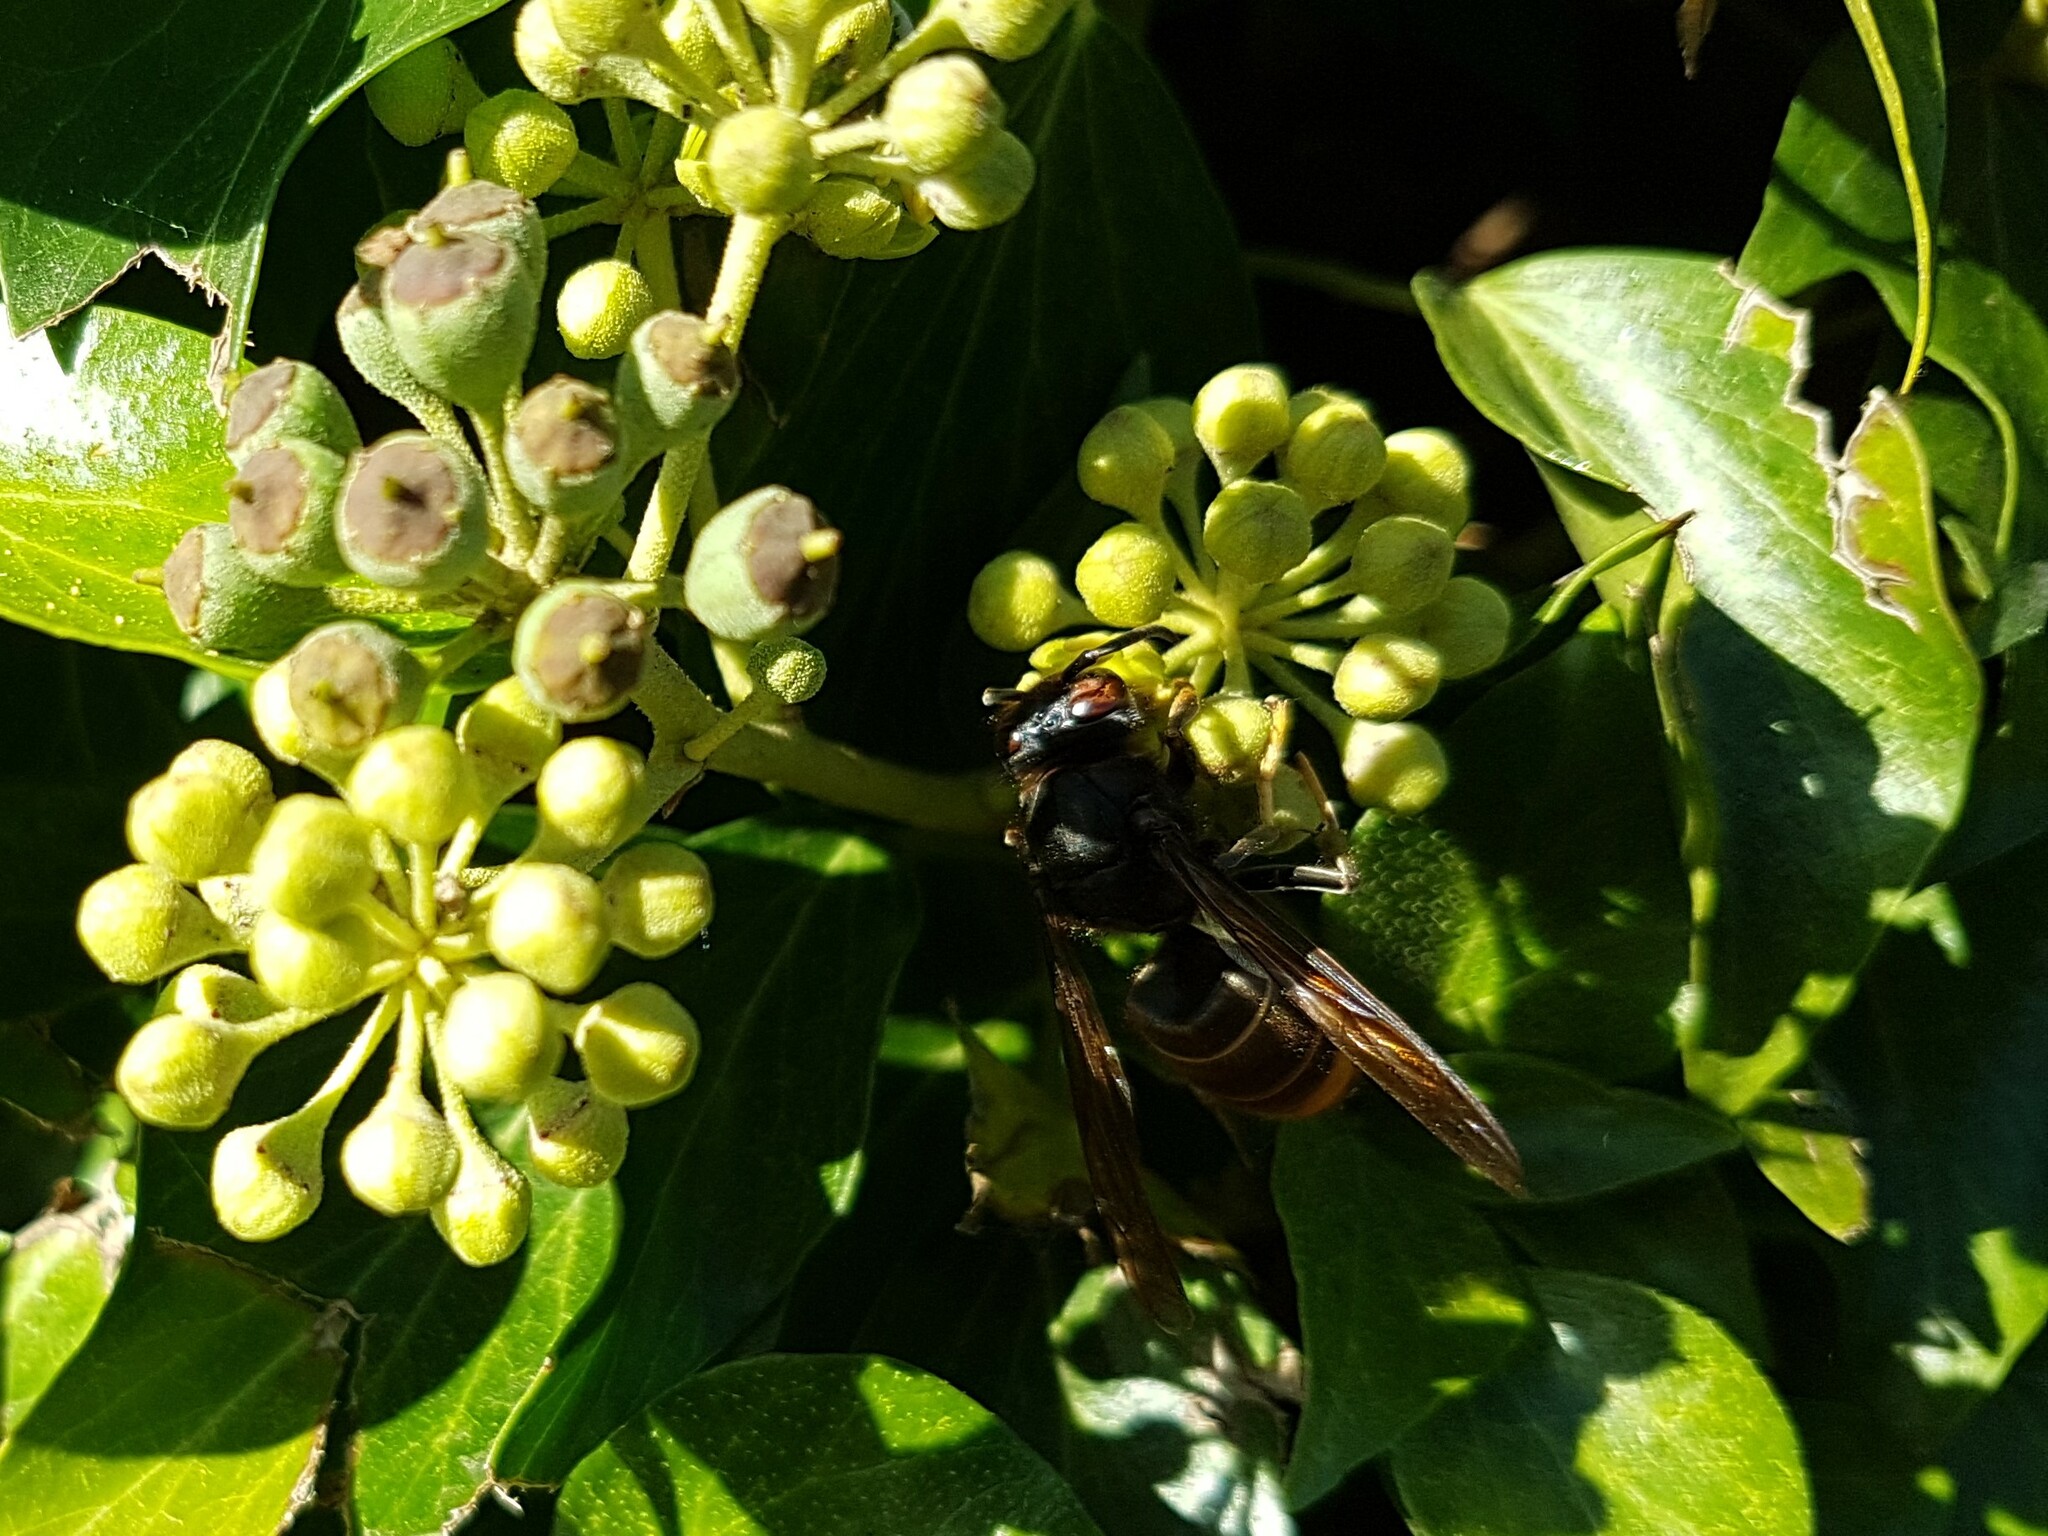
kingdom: Animalia
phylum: Arthropoda
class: Insecta
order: Hymenoptera
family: Vespidae
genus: Vespa
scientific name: Vespa velutina
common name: Asian hornet
